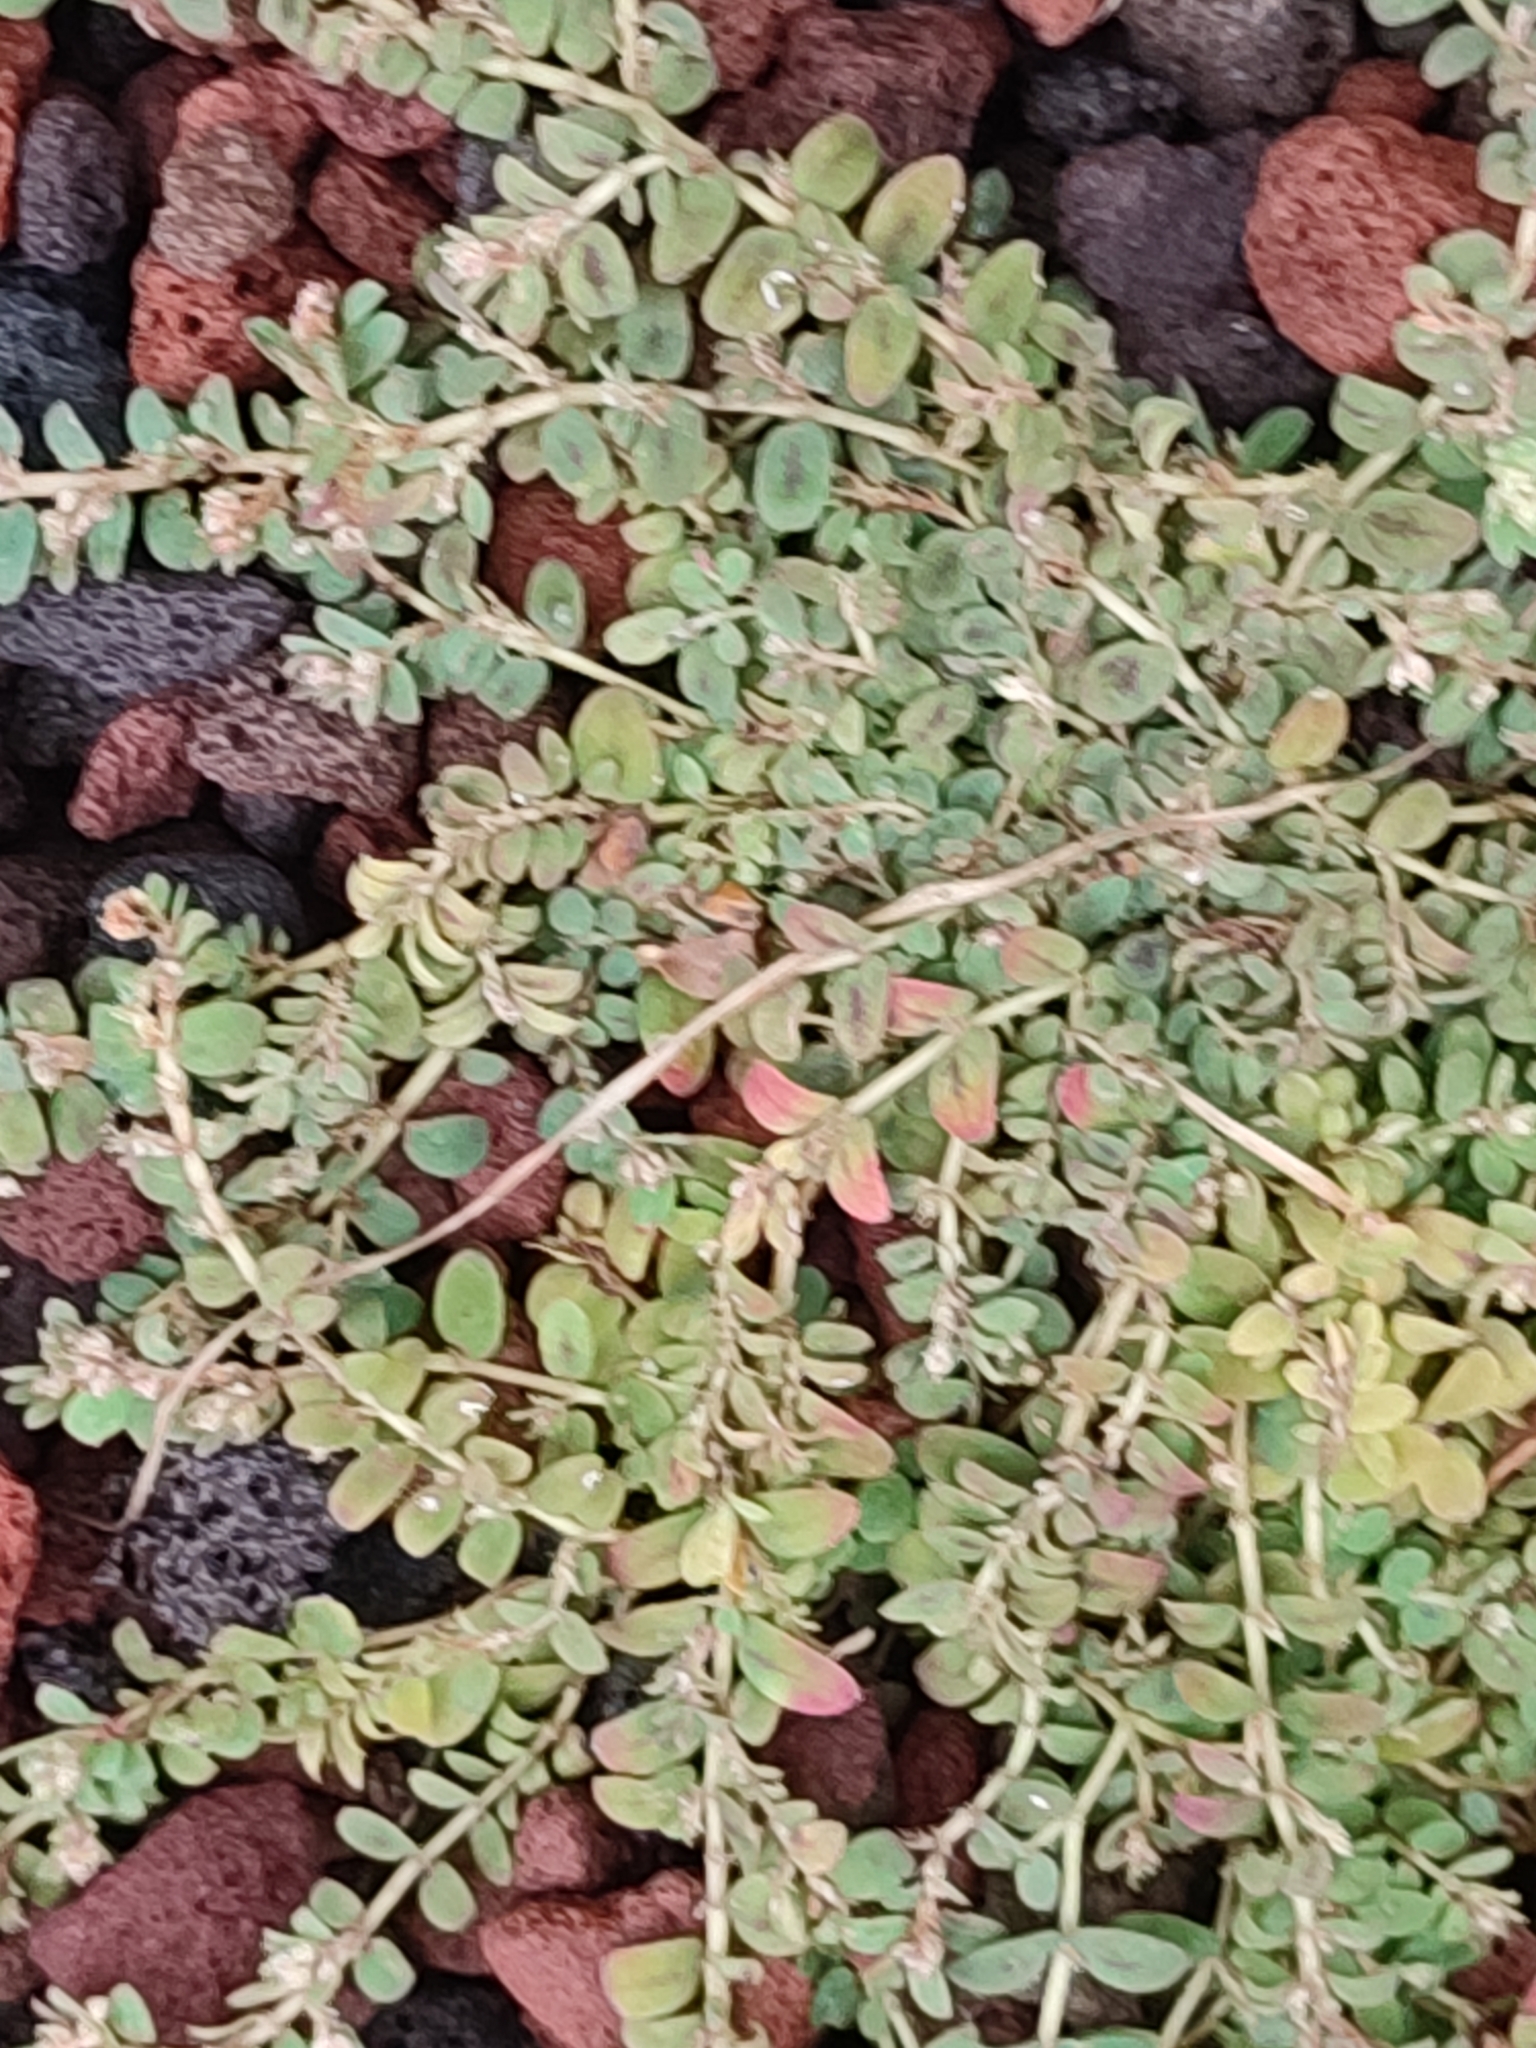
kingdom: Plantae
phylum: Tracheophyta
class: Magnoliopsida
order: Malpighiales
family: Euphorbiaceae
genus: Euphorbia
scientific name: Euphorbia thymifolia
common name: Gulf sandmat
